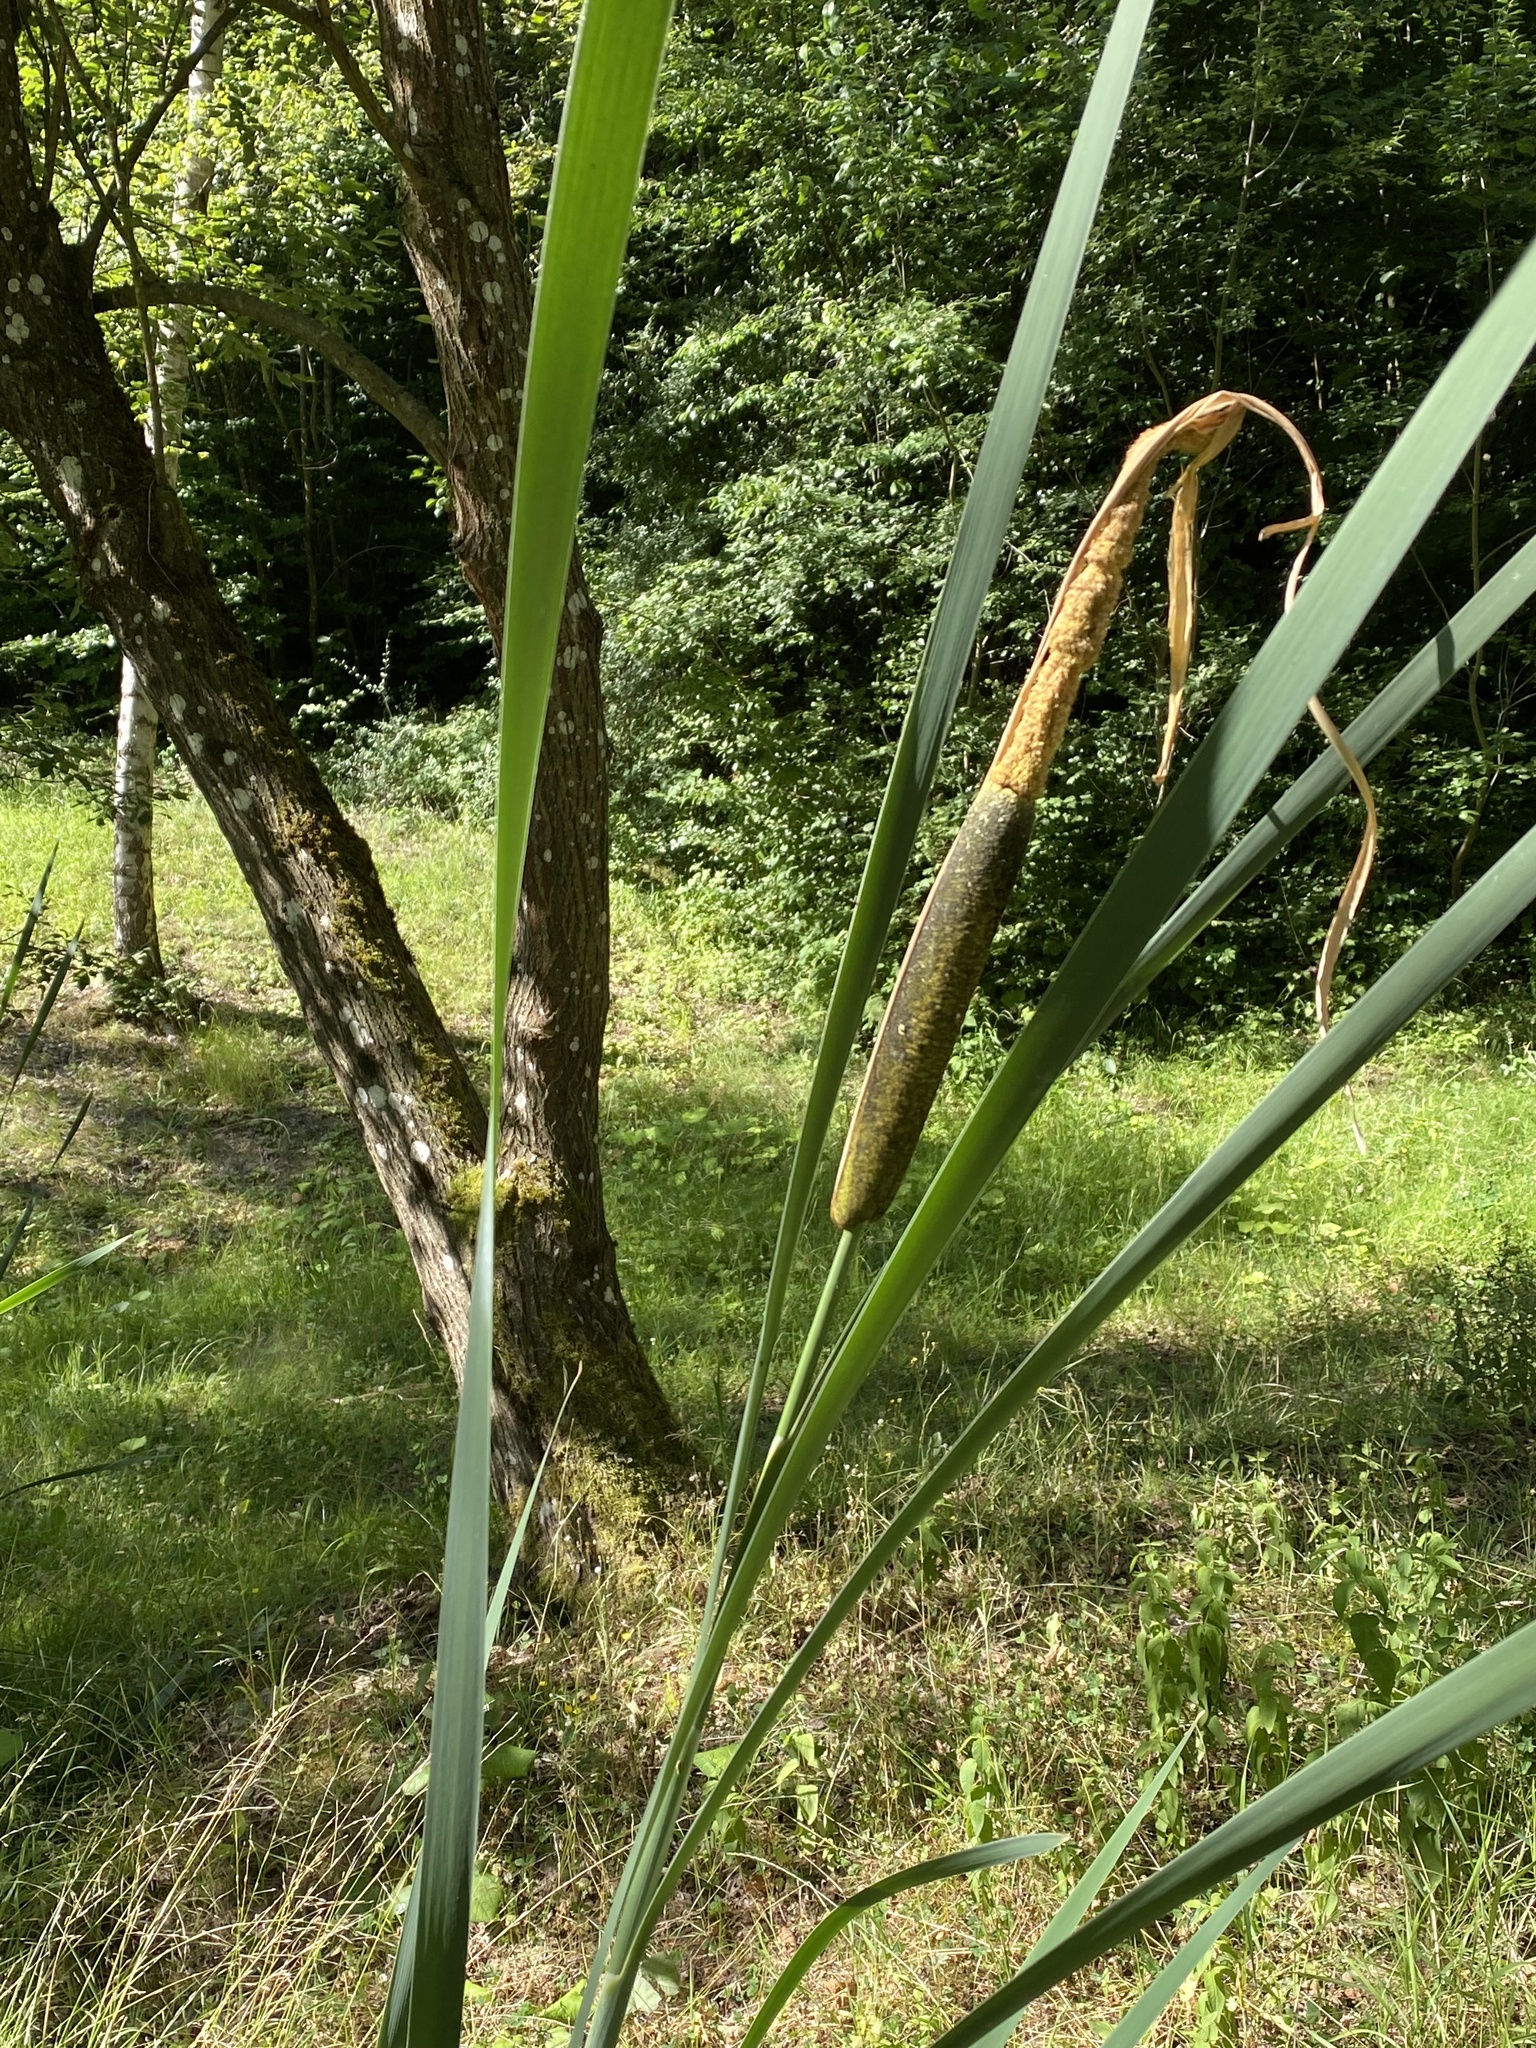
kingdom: Plantae
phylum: Tracheophyta
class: Liliopsida
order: Poales
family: Typhaceae
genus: Typha
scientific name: Typha latifolia
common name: Broadleaf cattail
